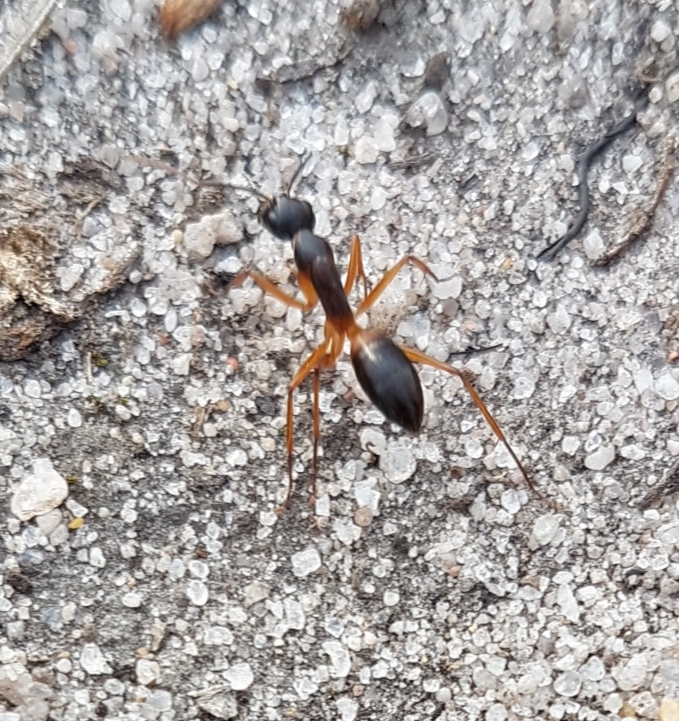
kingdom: Animalia
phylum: Arthropoda
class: Insecta
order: Hymenoptera
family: Formicidae
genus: Camponotus
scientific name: Camponotus consobrinus
